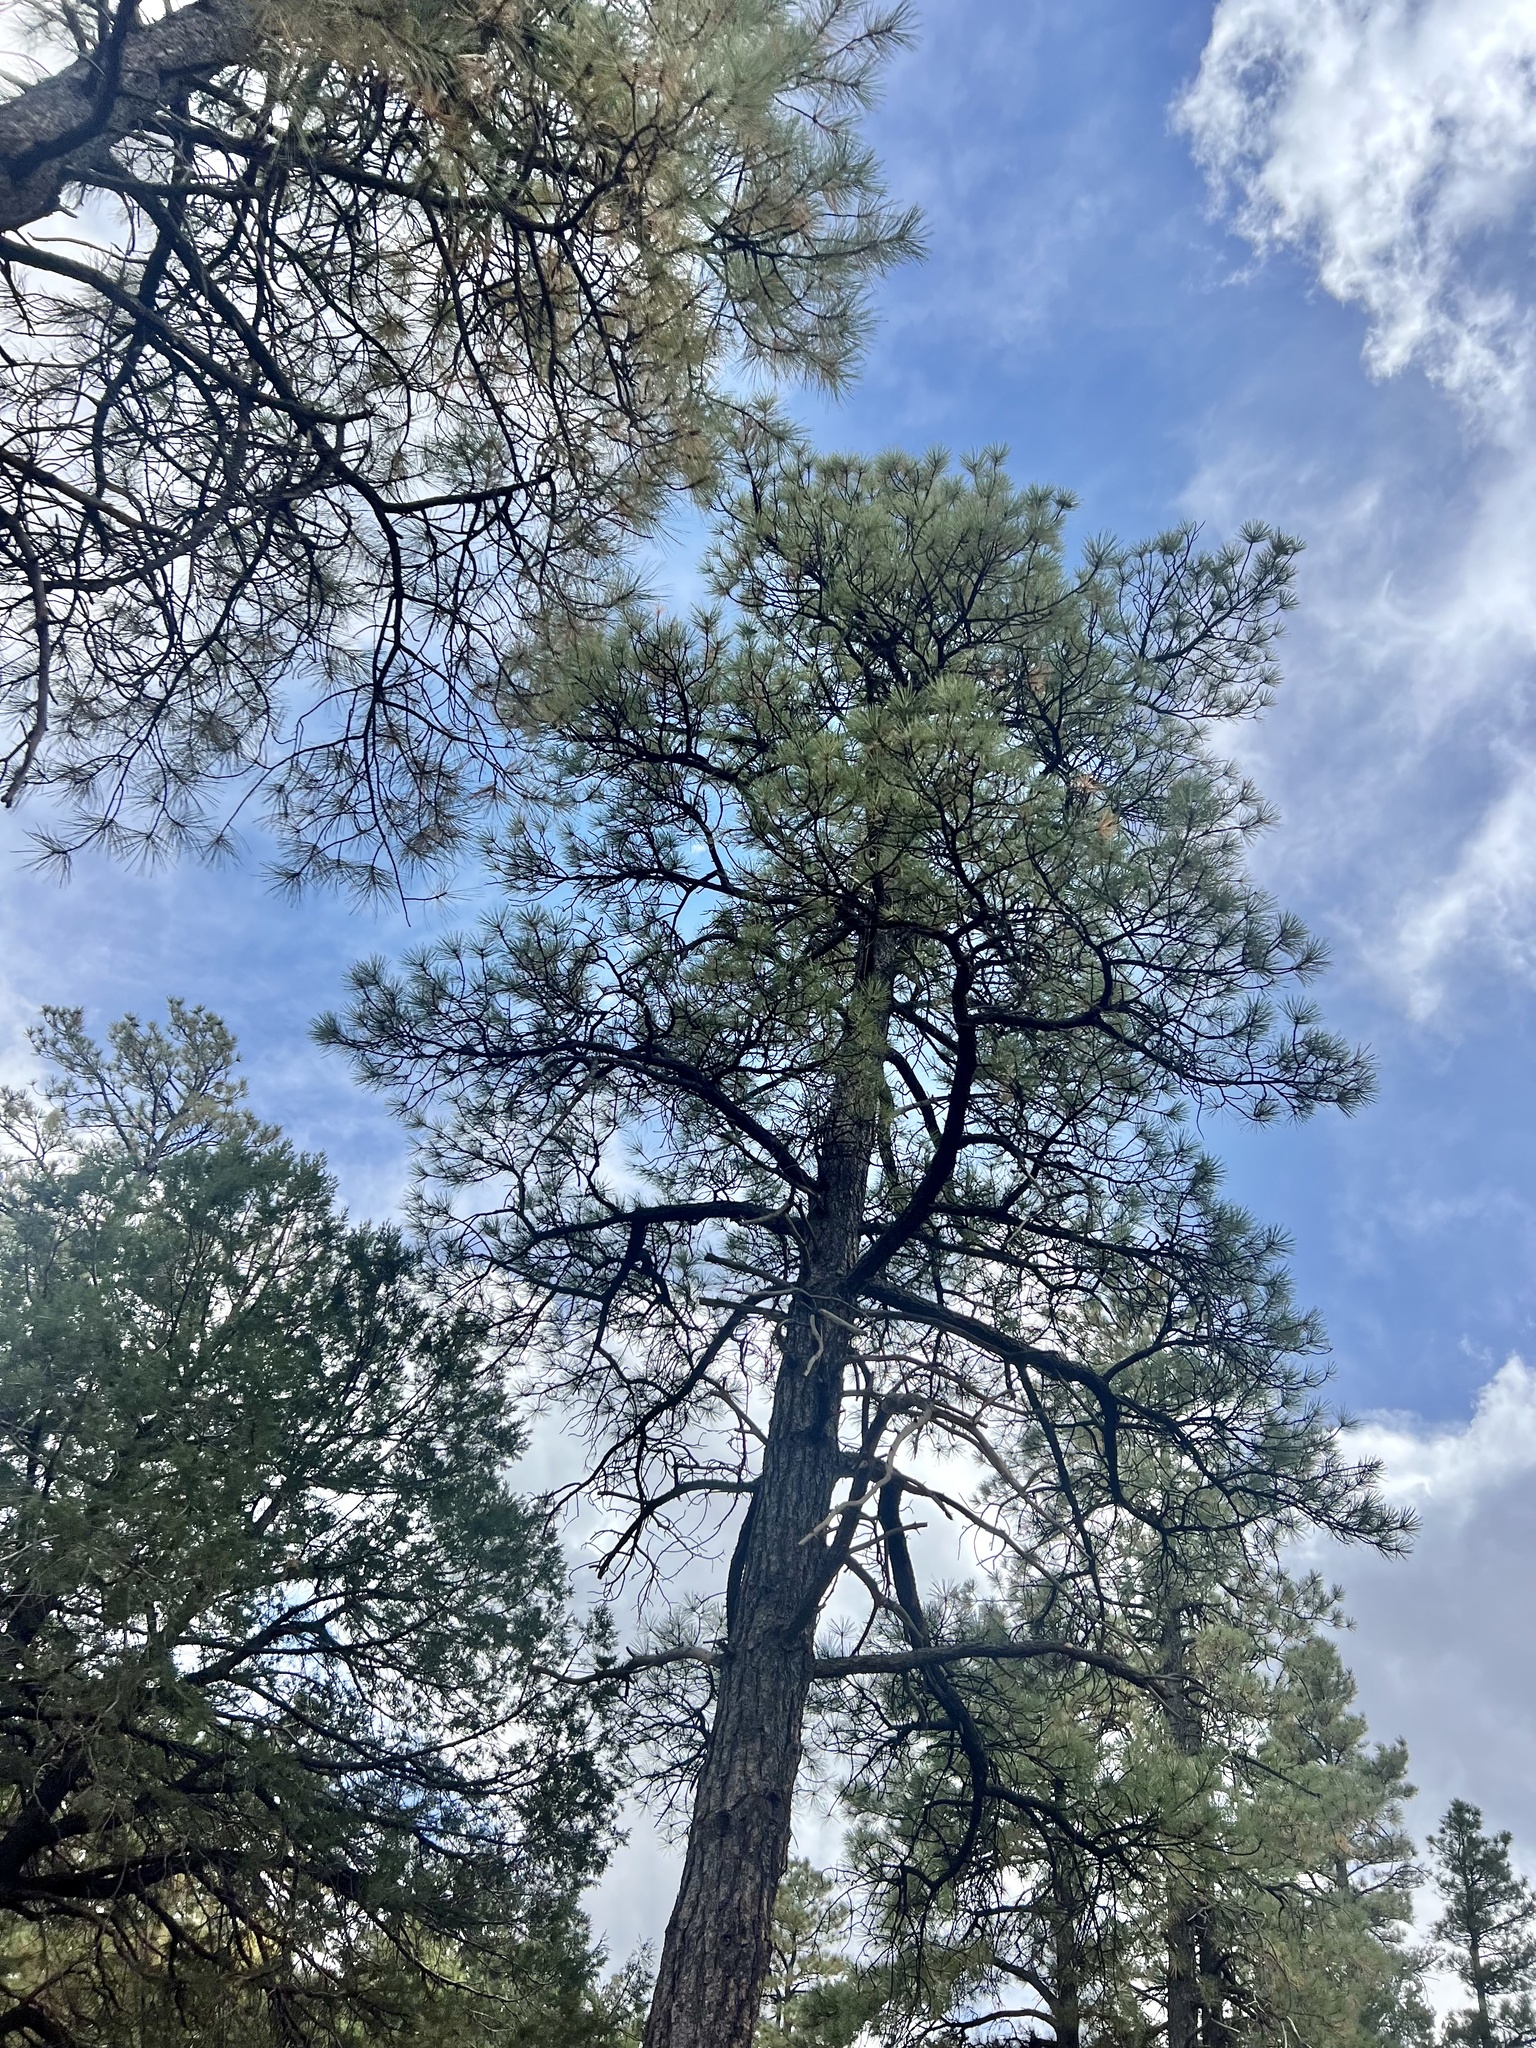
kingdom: Plantae
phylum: Tracheophyta
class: Pinopsida
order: Pinales
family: Pinaceae
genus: Pinus
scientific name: Pinus ponderosa
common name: Western yellow-pine
